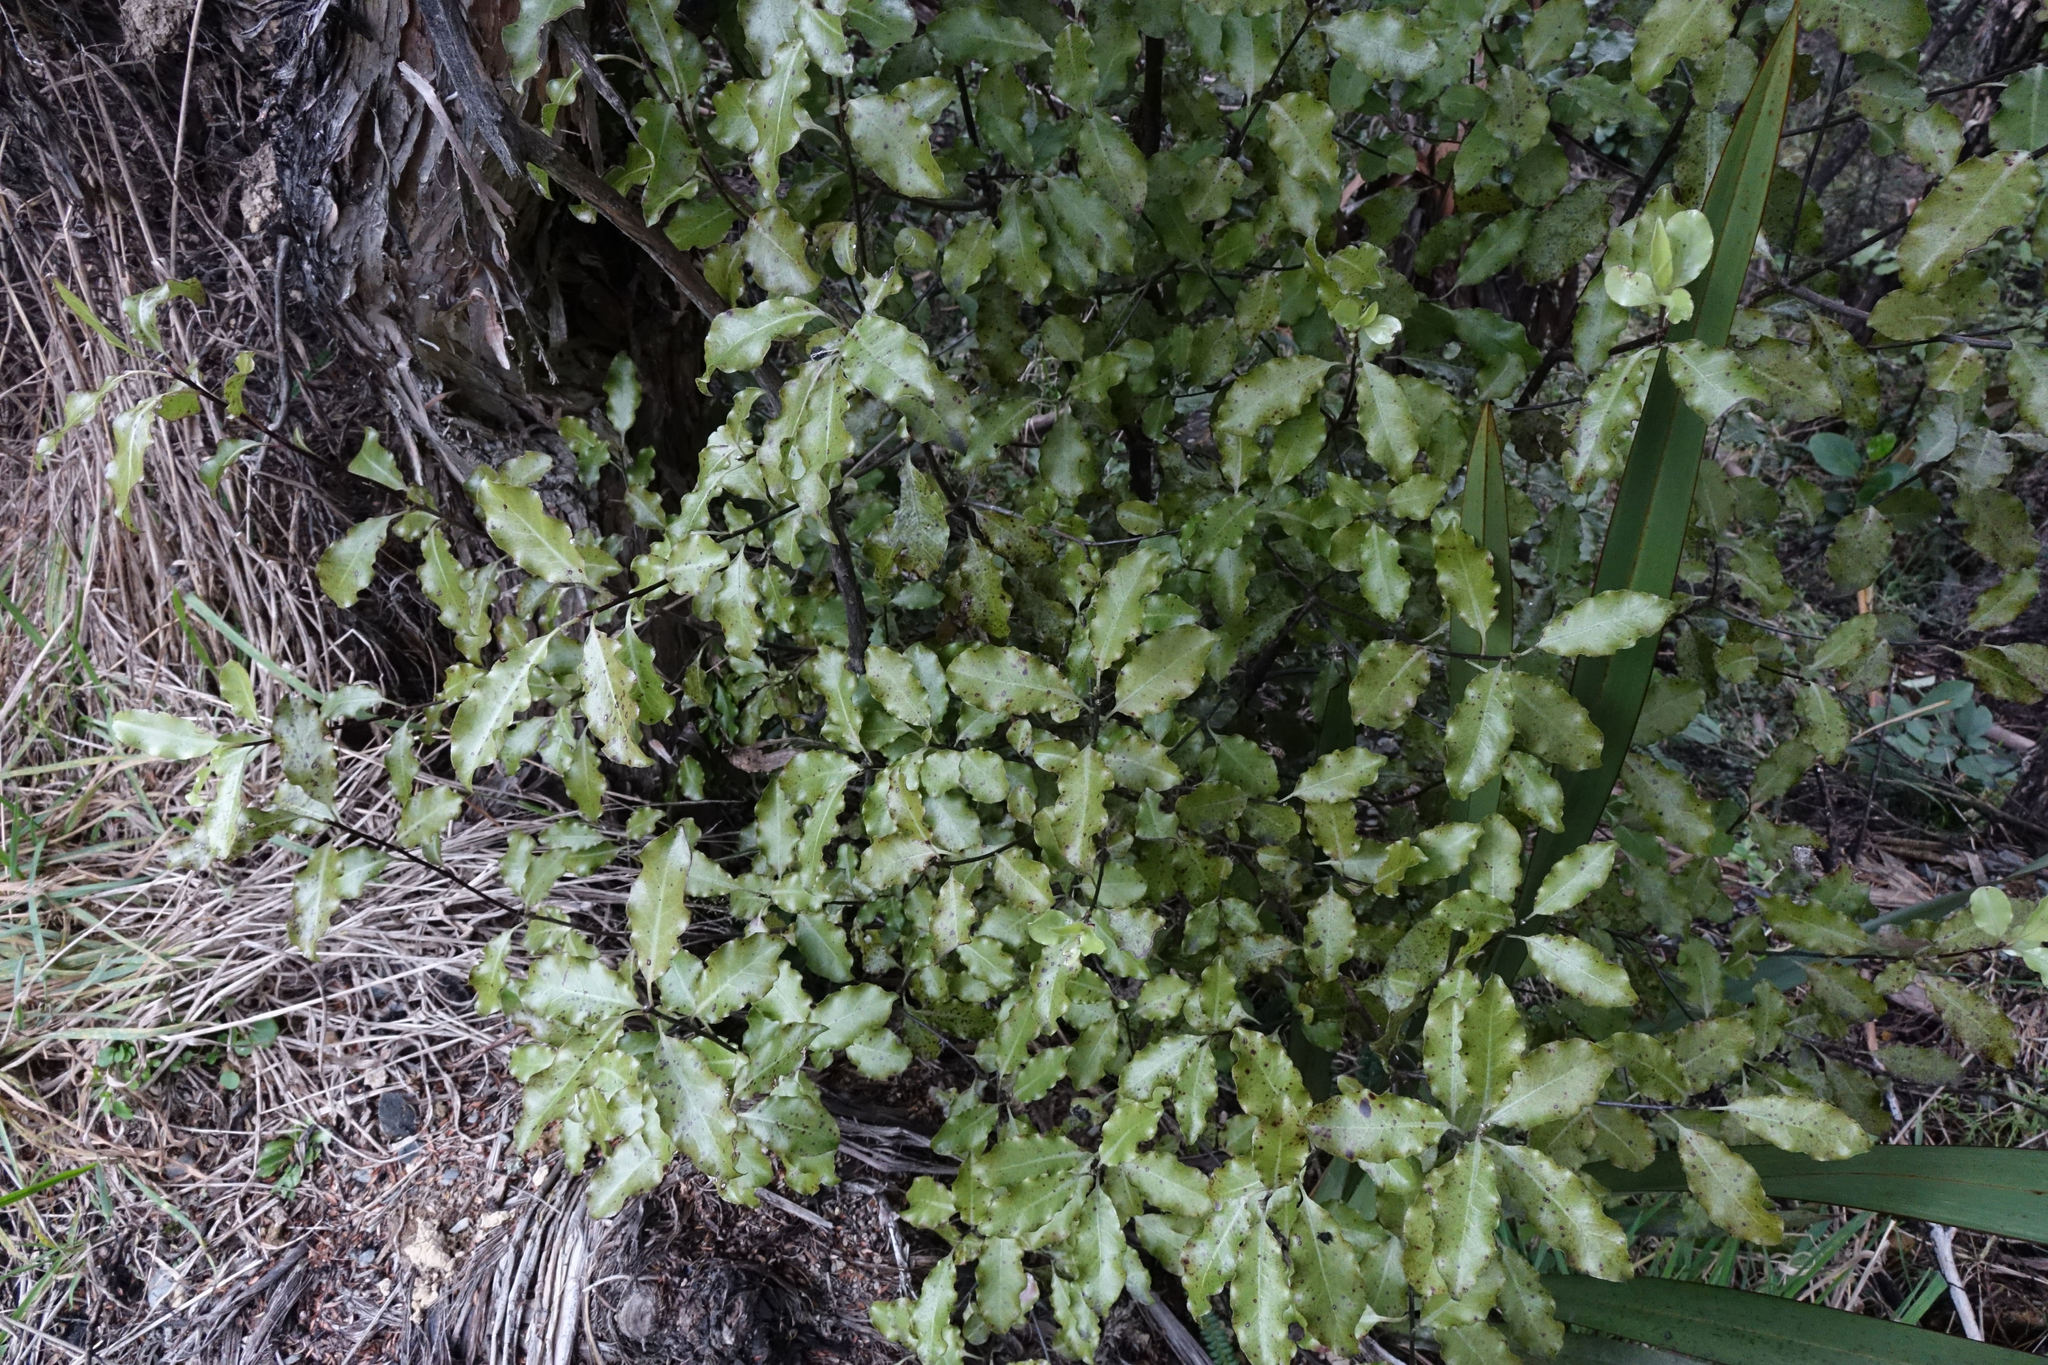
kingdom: Plantae
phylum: Tracheophyta
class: Magnoliopsida
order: Apiales
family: Pittosporaceae
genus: Pittosporum
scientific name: Pittosporum tenuifolium
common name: Kohuhu
